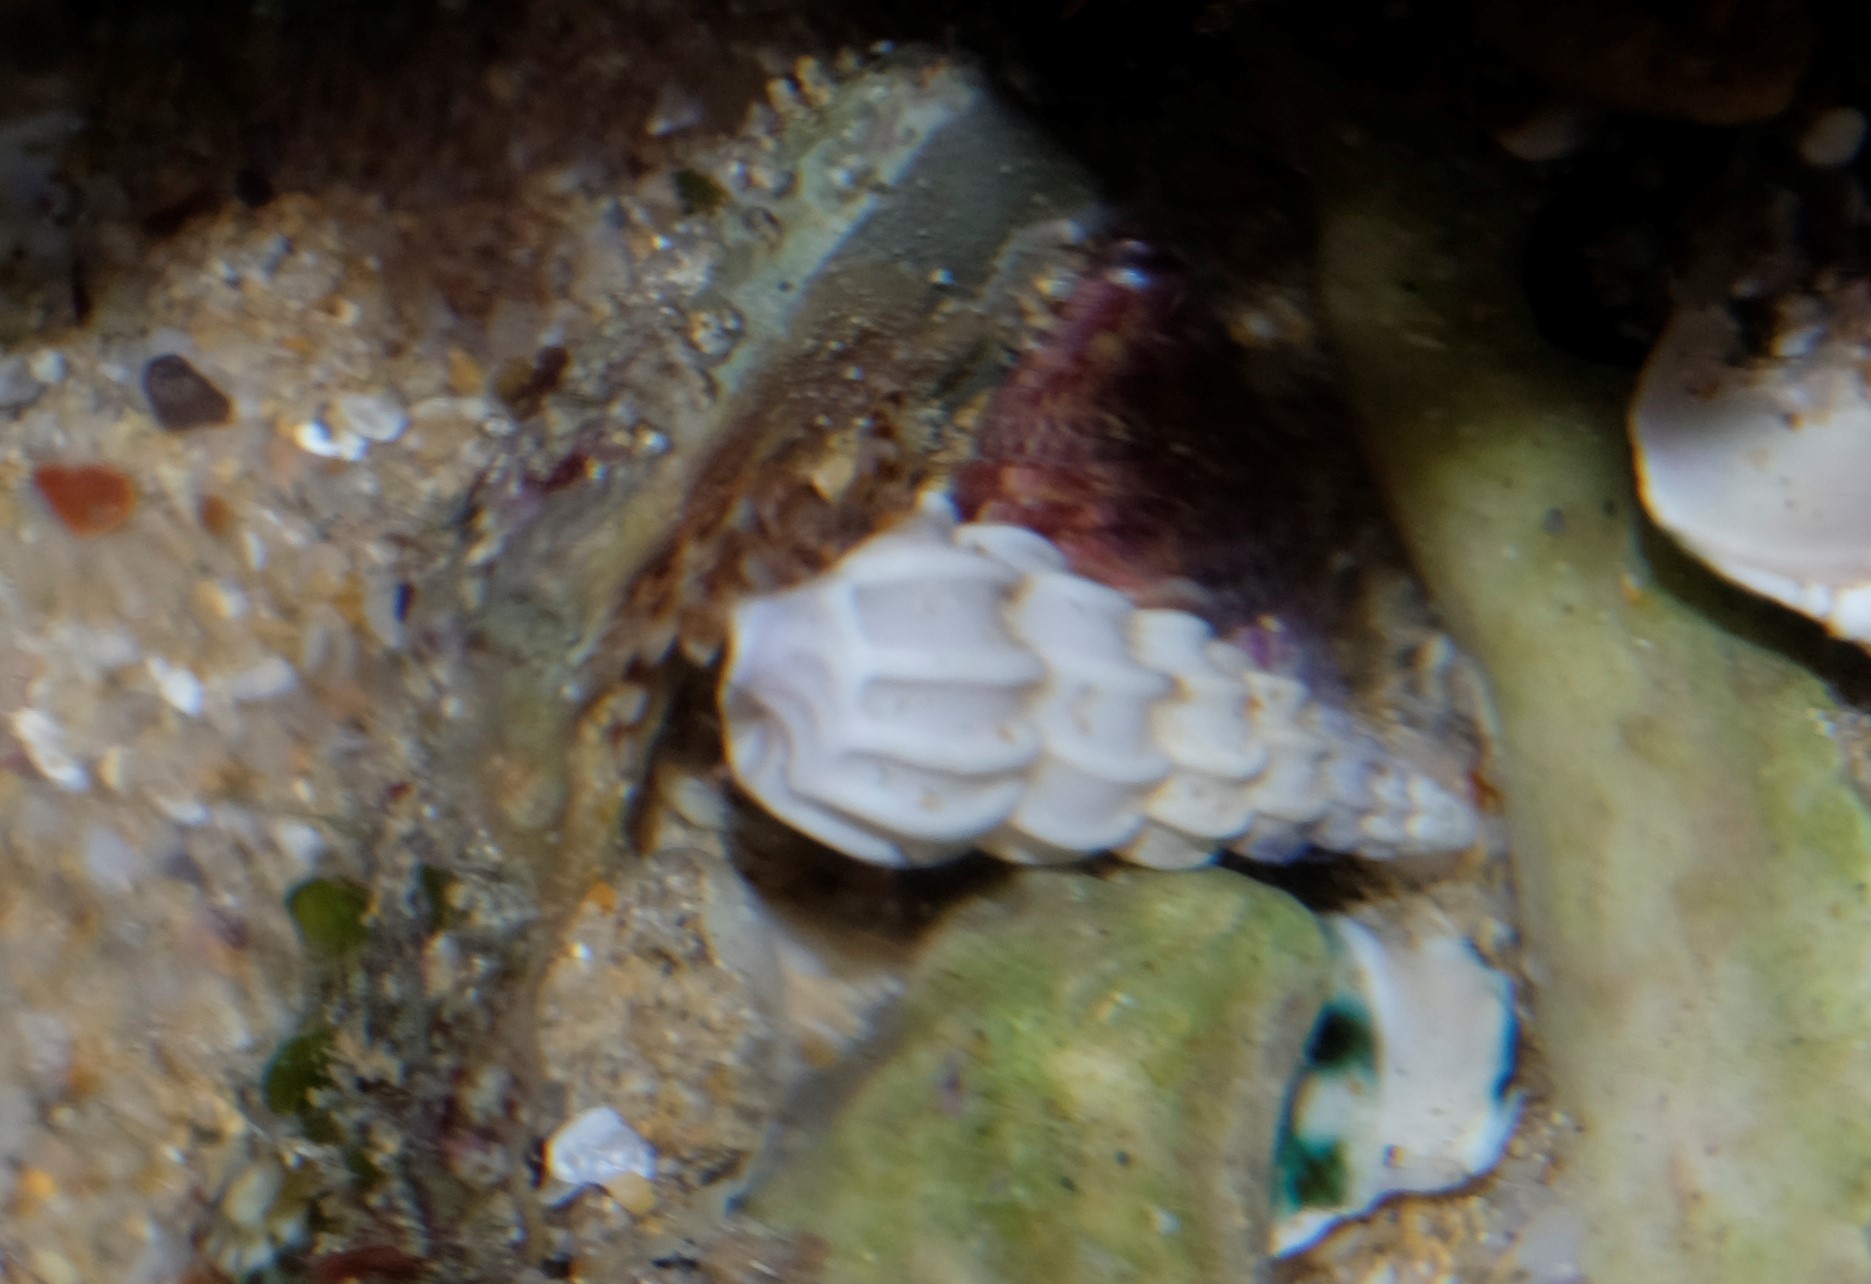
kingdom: Animalia
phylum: Mollusca
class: Gastropoda
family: Epitoniidae
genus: Opalia
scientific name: Opalia australis
